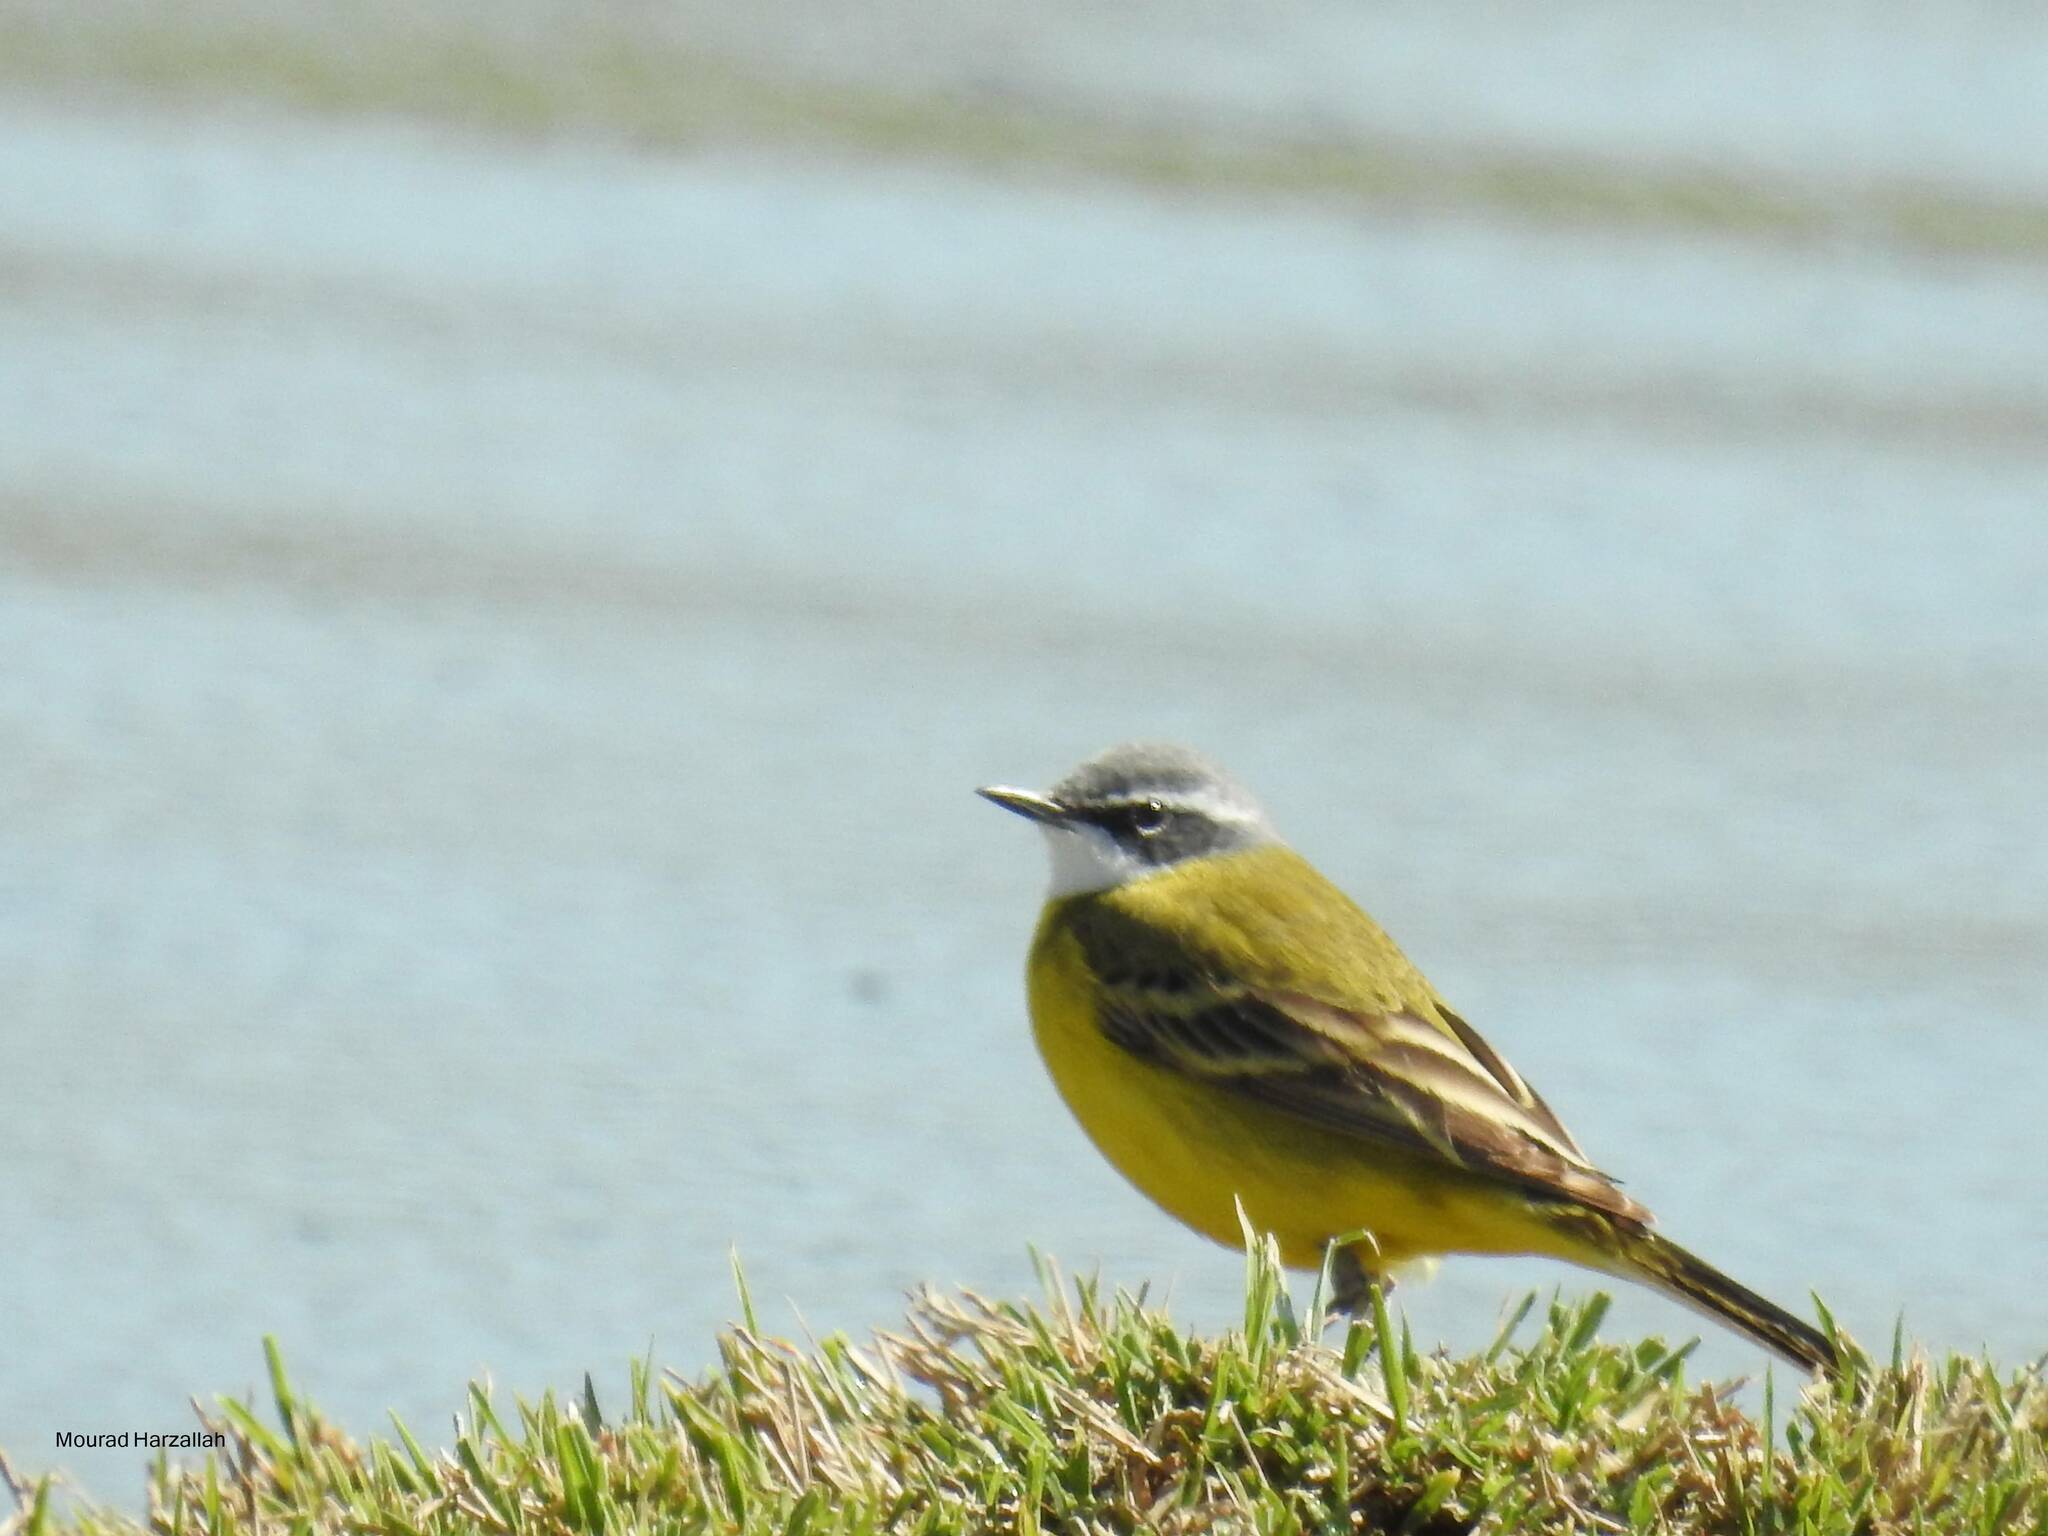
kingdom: Animalia
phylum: Chordata
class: Aves
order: Passeriformes
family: Motacillidae
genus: Motacilla
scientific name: Motacilla flava
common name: Western yellow wagtail
